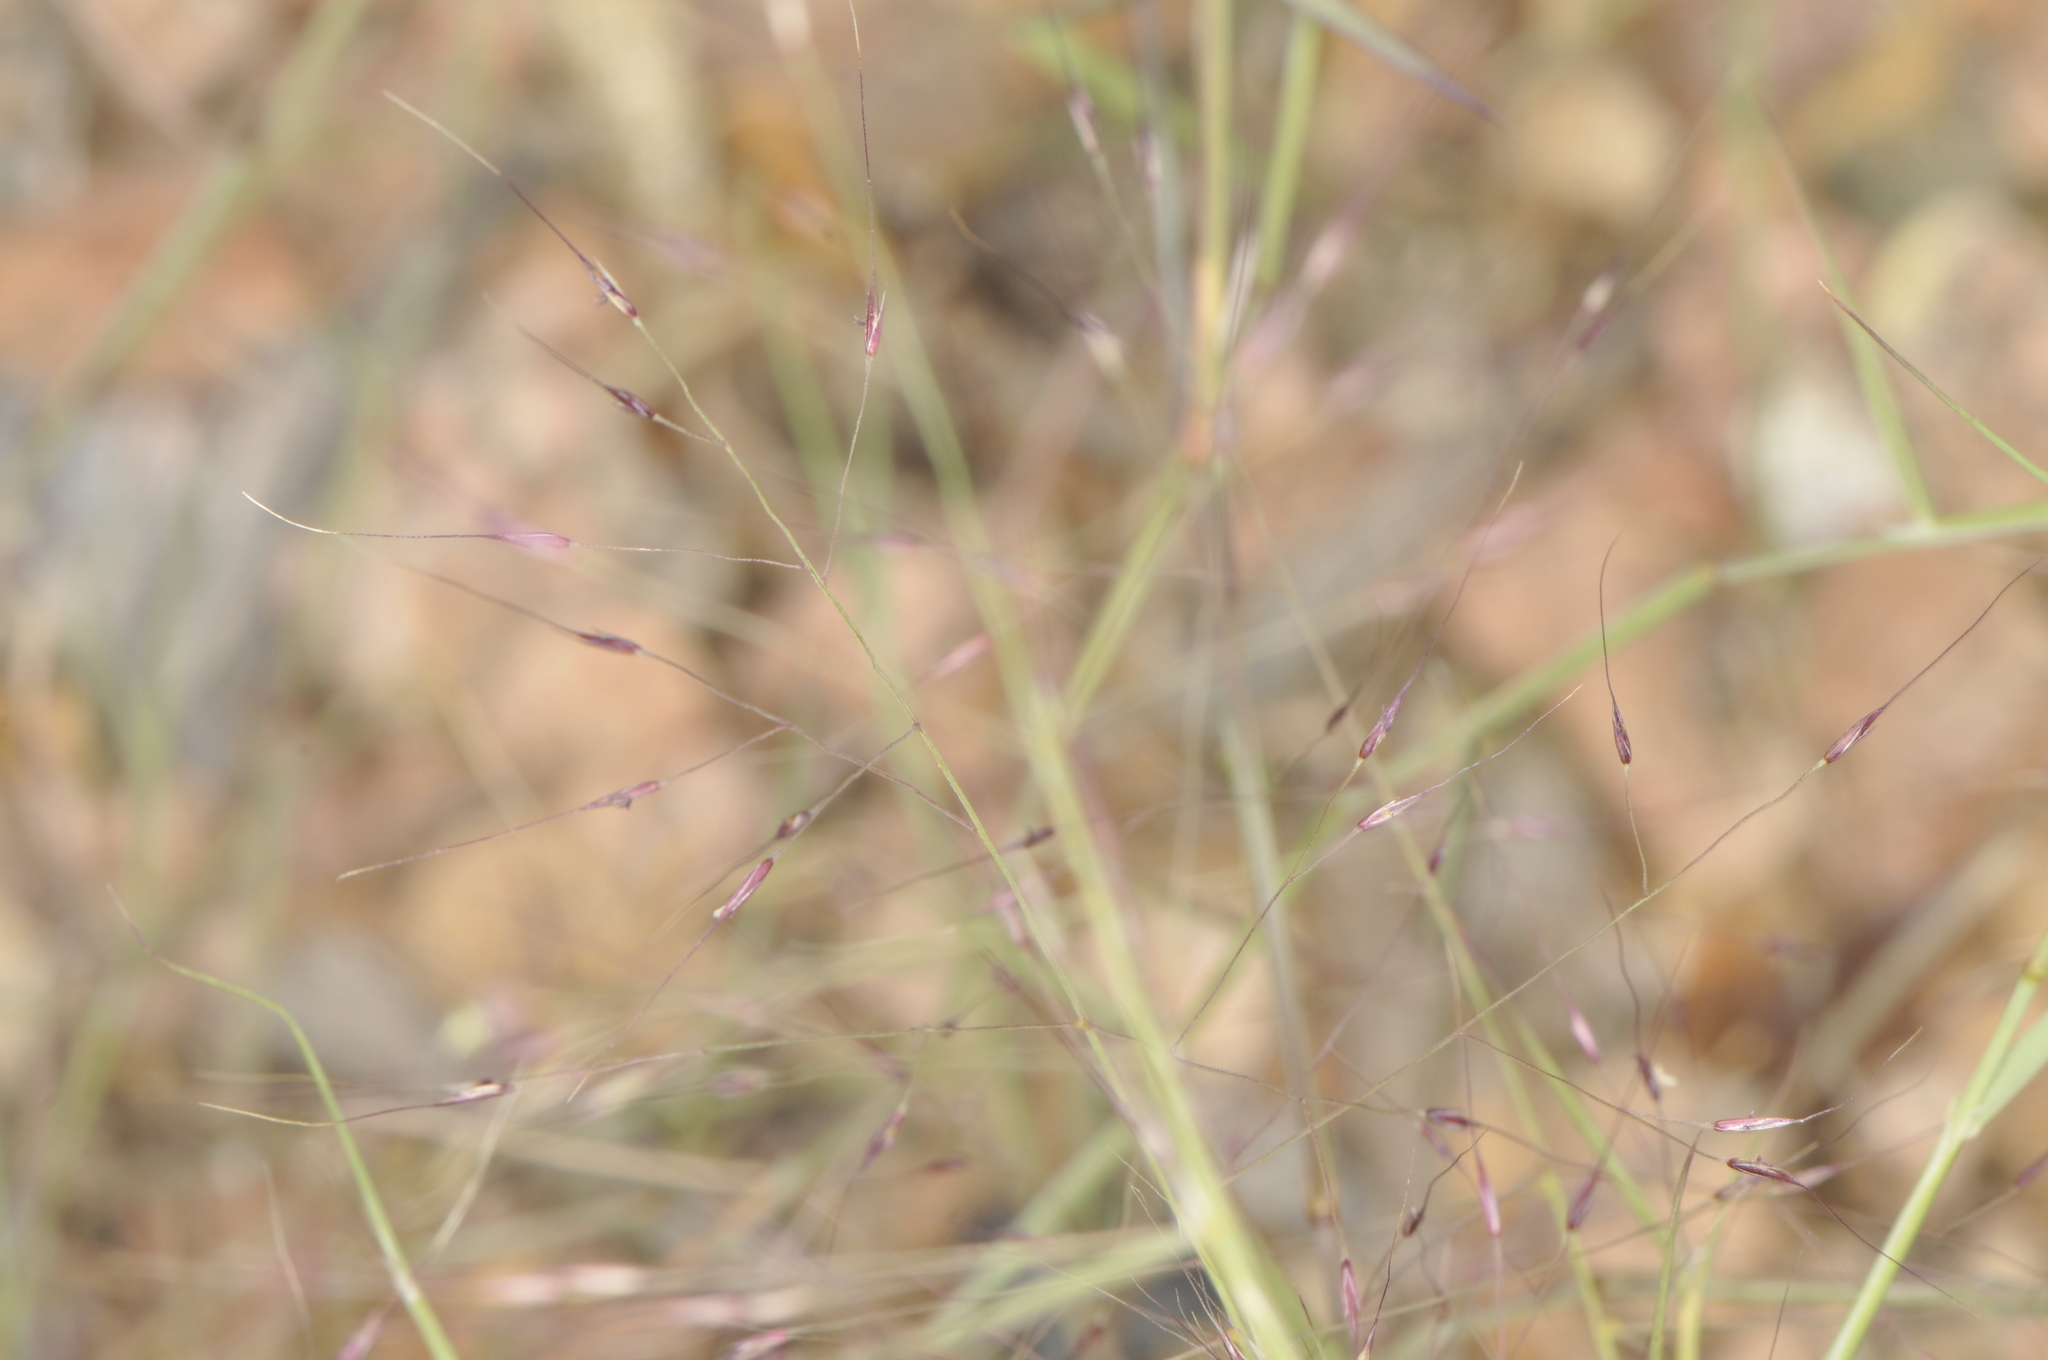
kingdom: Plantae
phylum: Tracheophyta
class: Liliopsida
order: Poales
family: Poaceae
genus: Muhlenbergia
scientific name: Muhlenbergia porteri
